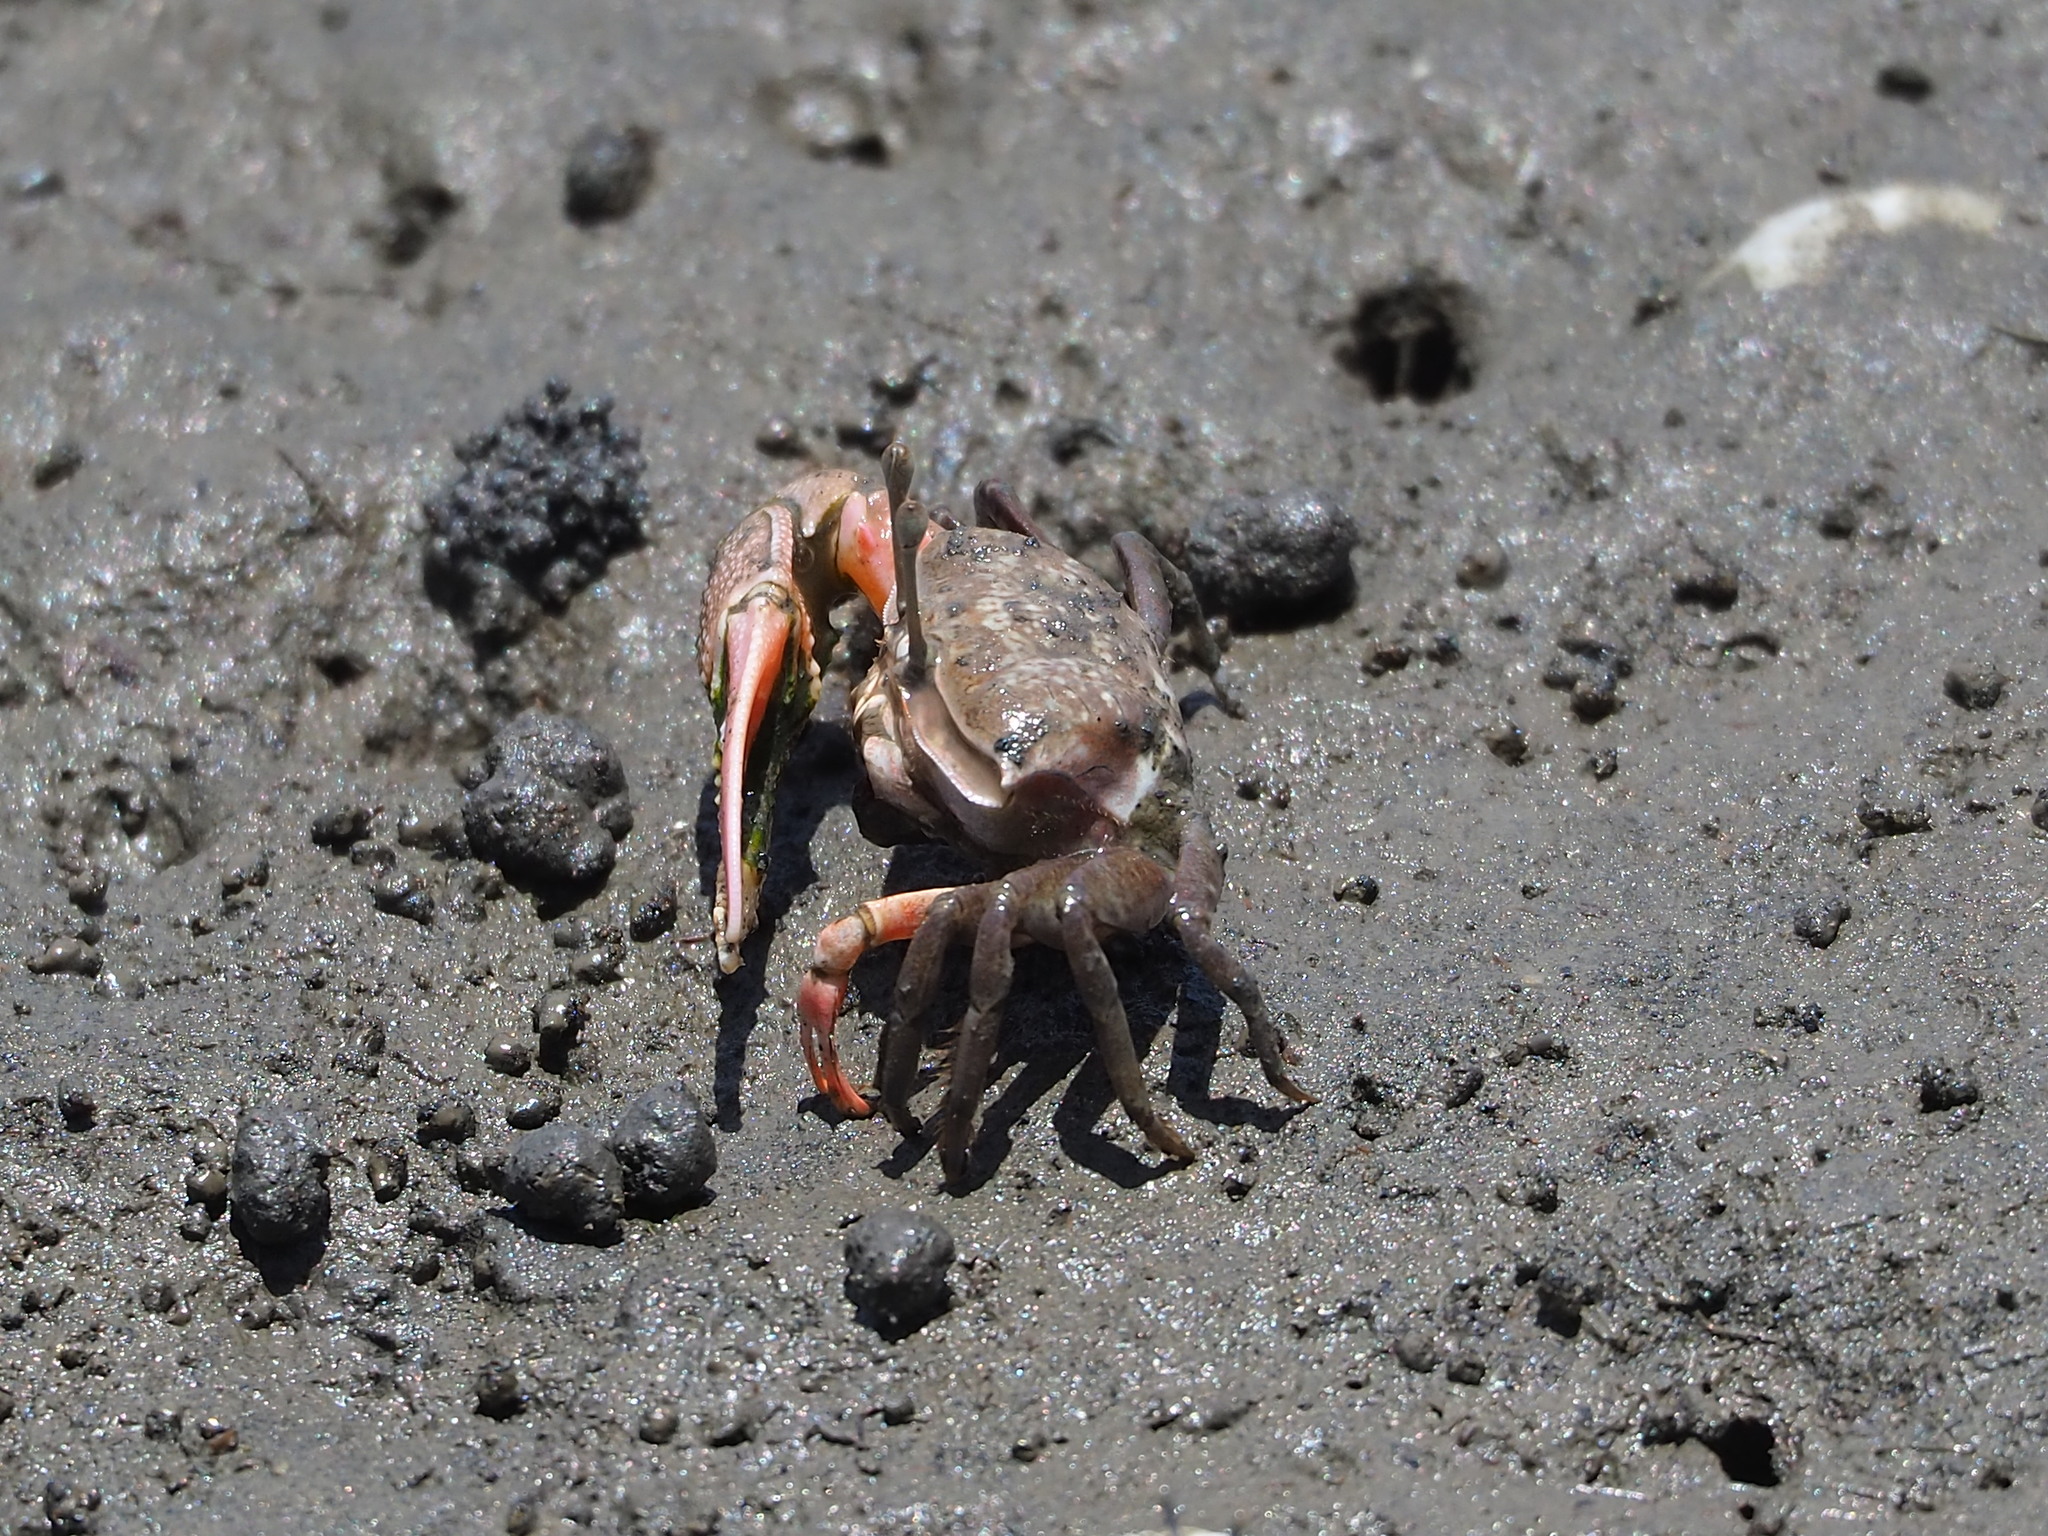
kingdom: Animalia
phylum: Arthropoda
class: Malacostraca
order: Decapoda
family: Ocypodidae
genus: Gelasimus
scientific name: Gelasimus borealis
